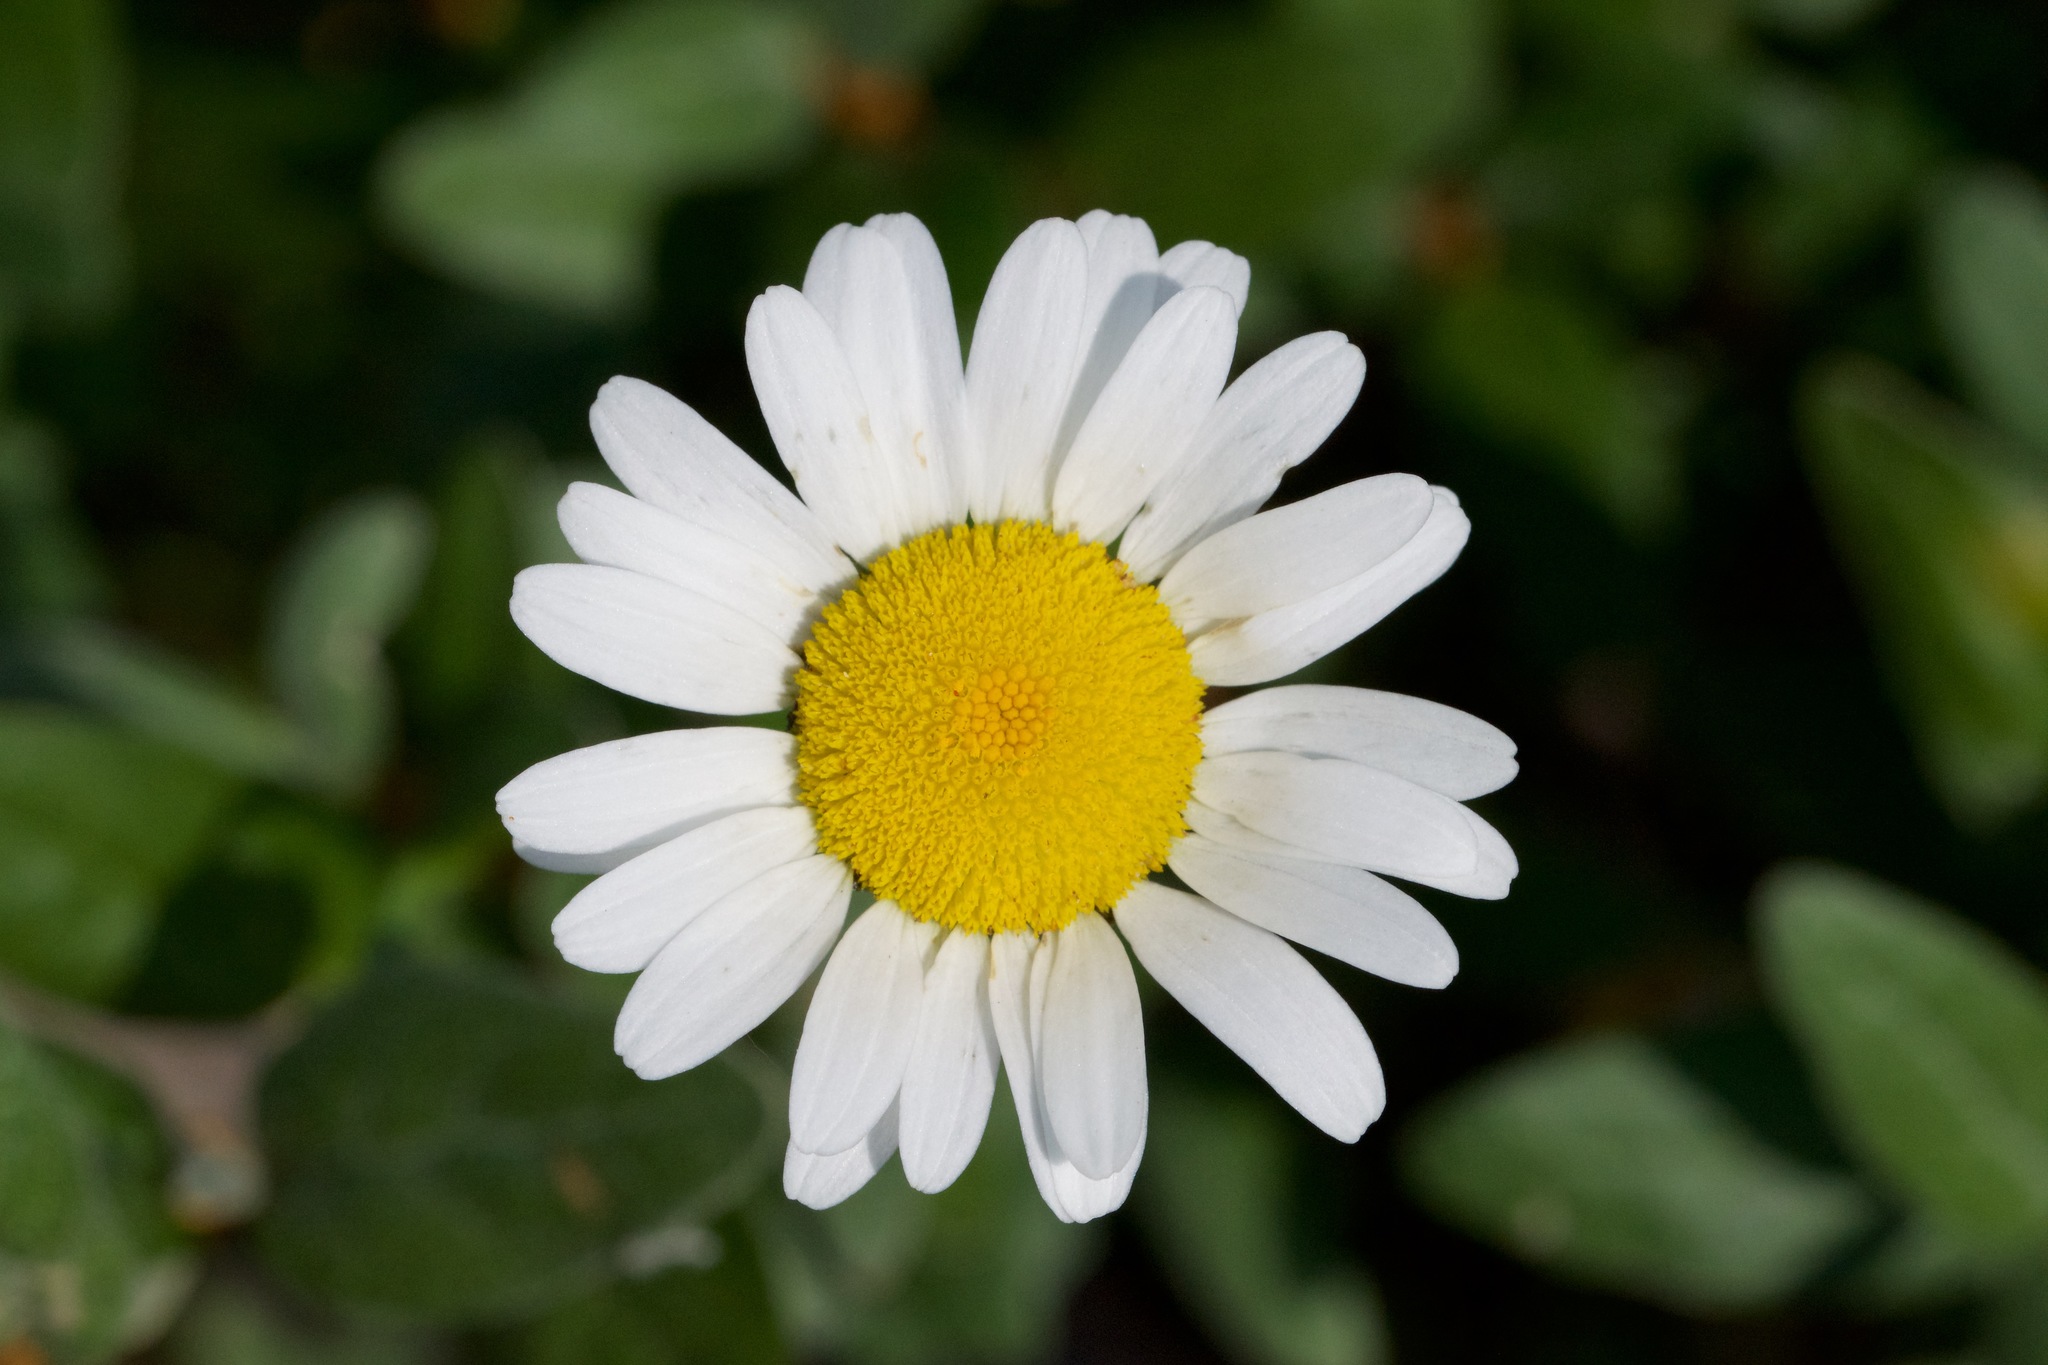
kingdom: Plantae
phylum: Tracheophyta
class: Magnoliopsida
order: Asterales
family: Asteraceae
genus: Leucanthemum
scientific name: Leucanthemum vulgare
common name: Oxeye daisy
